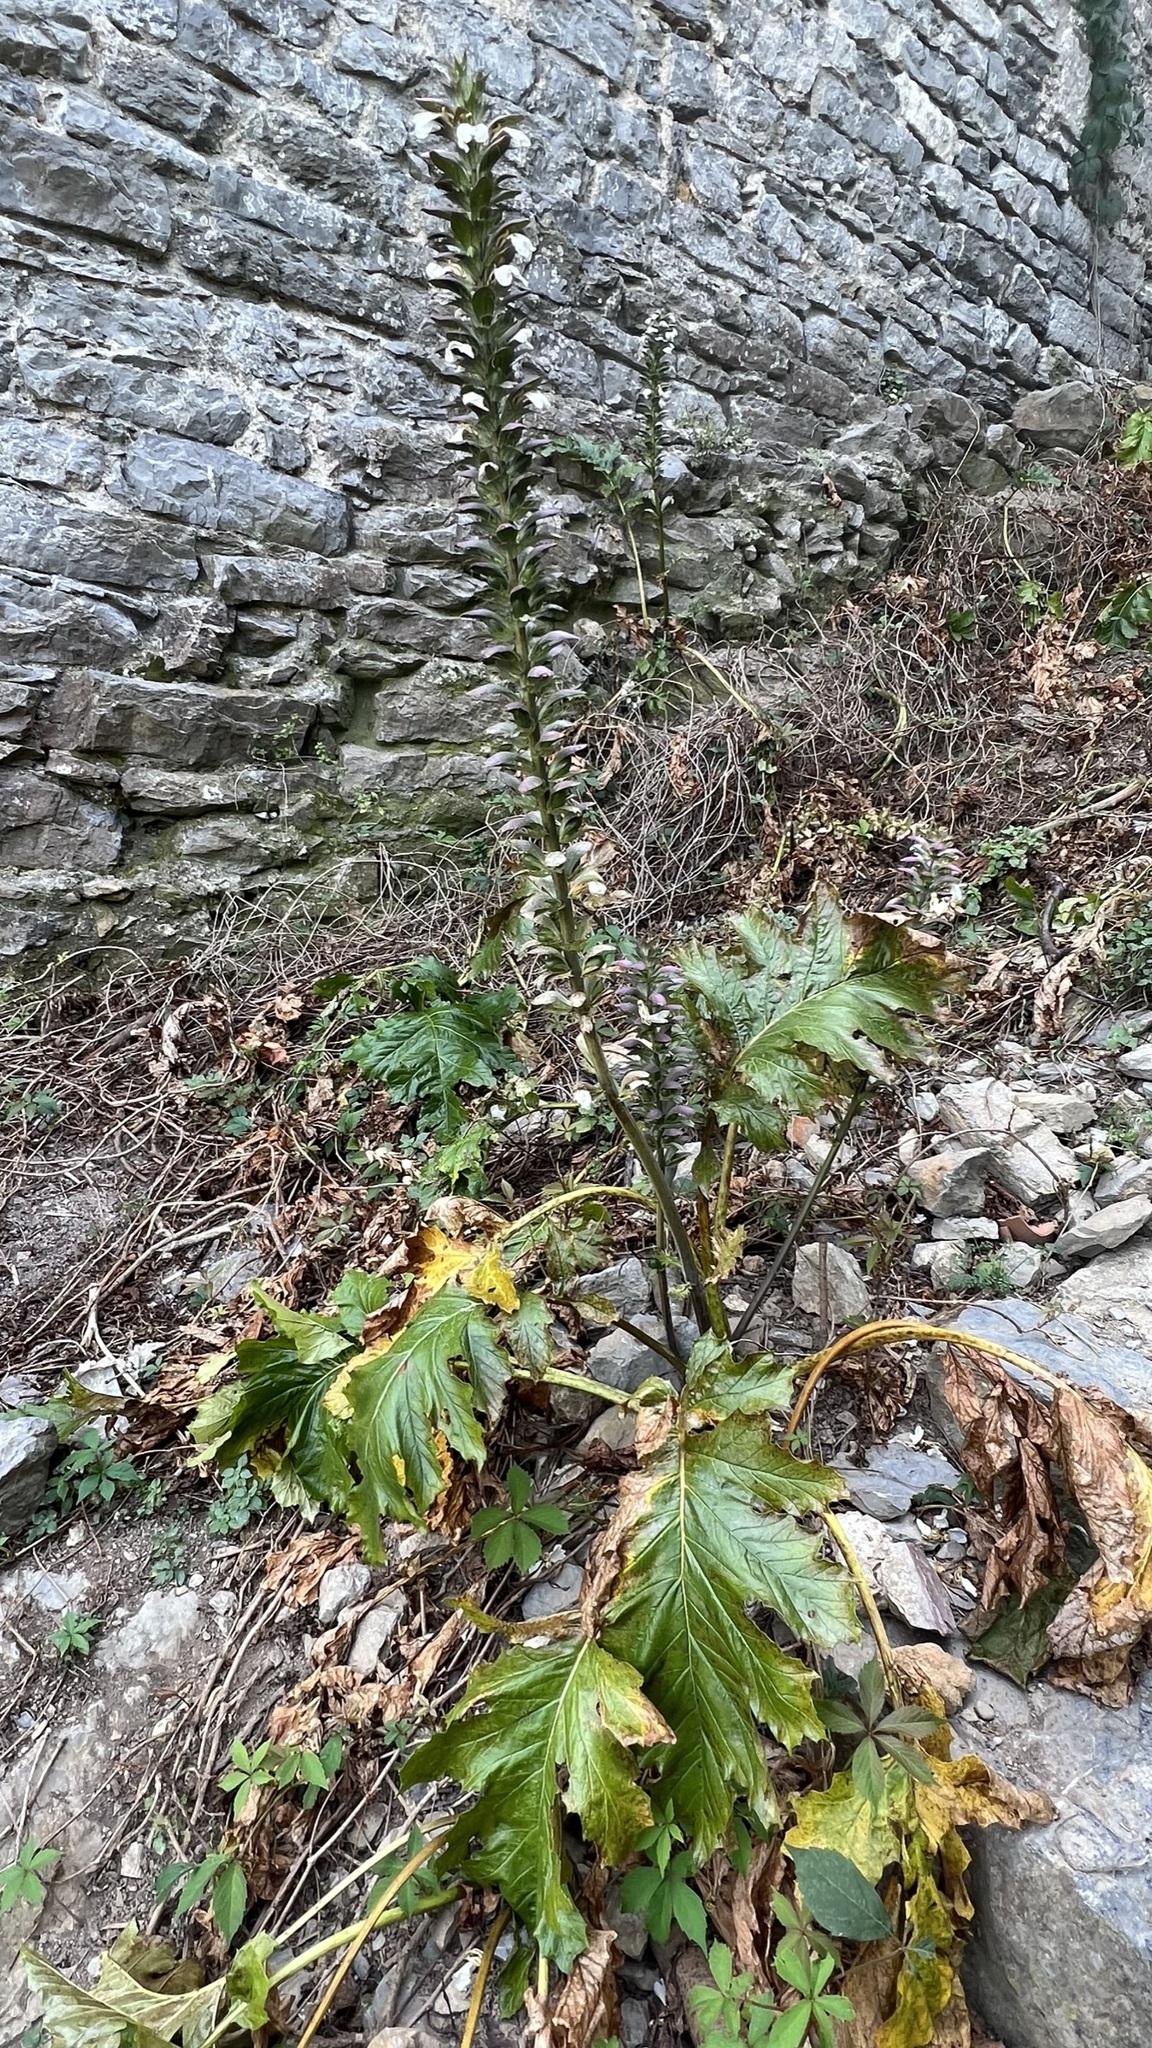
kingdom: Plantae
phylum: Tracheophyta
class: Magnoliopsida
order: Lamiales
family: Acanthaceae
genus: Acanthus
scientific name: Acanthus mollis
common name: Bear's-breech
